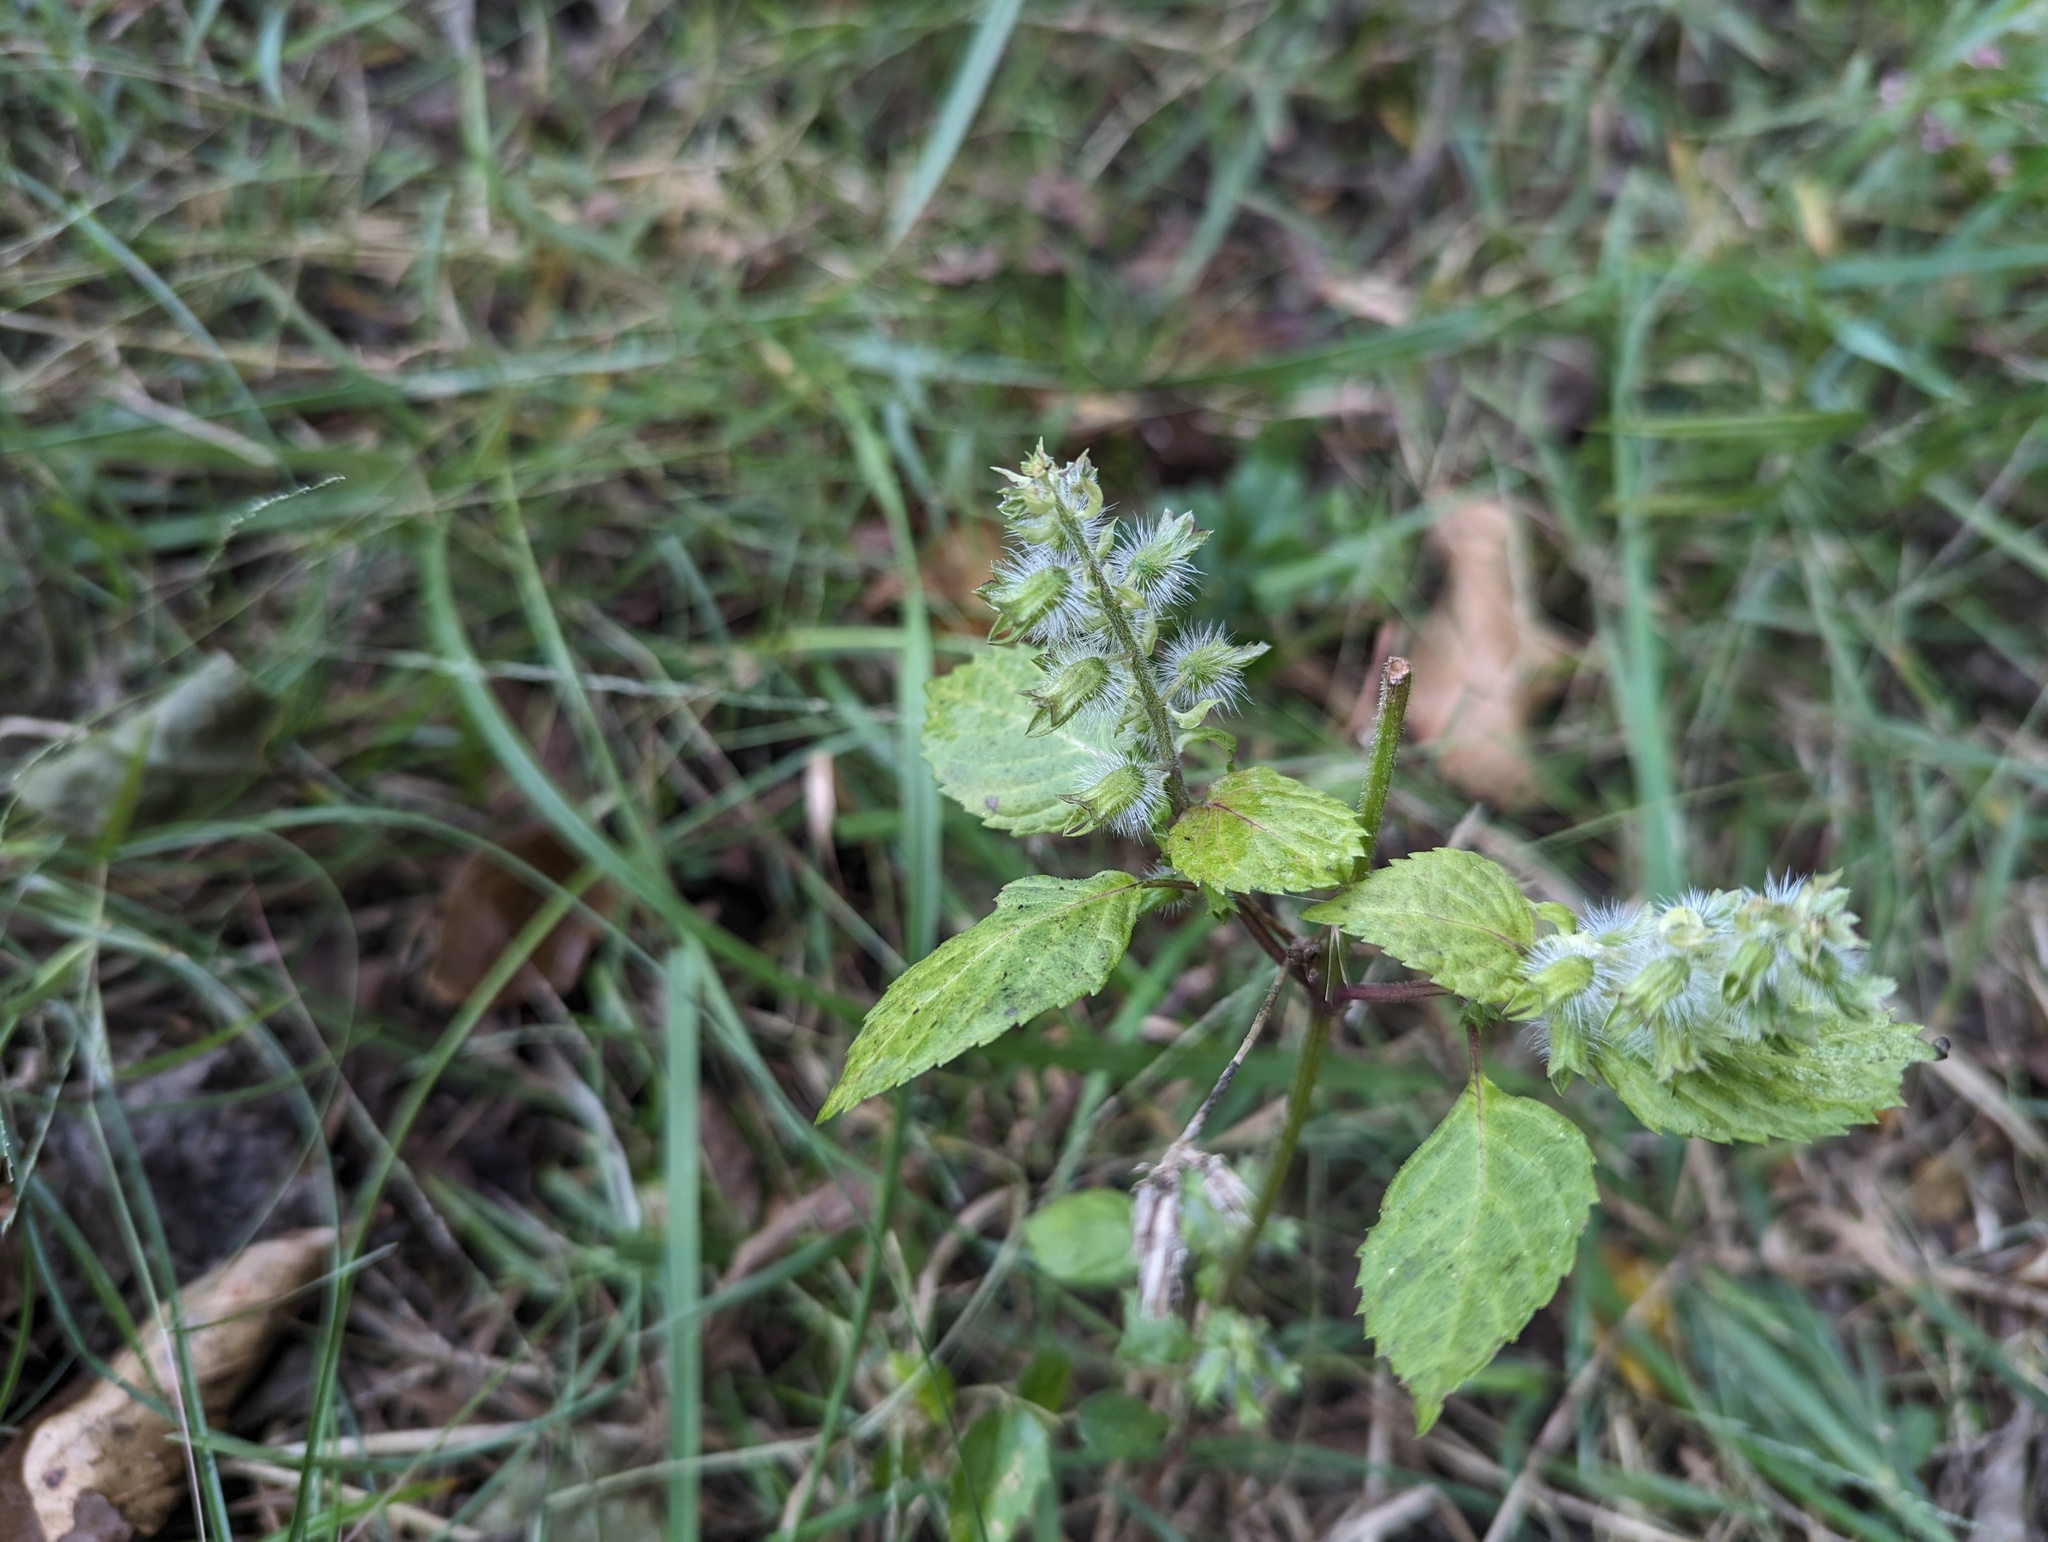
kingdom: Plantae
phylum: Tracheophyta
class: Magnoliopsida
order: Lamiales
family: Lamiaceae
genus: Perilla
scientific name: Perilla frutescens
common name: Perilla
